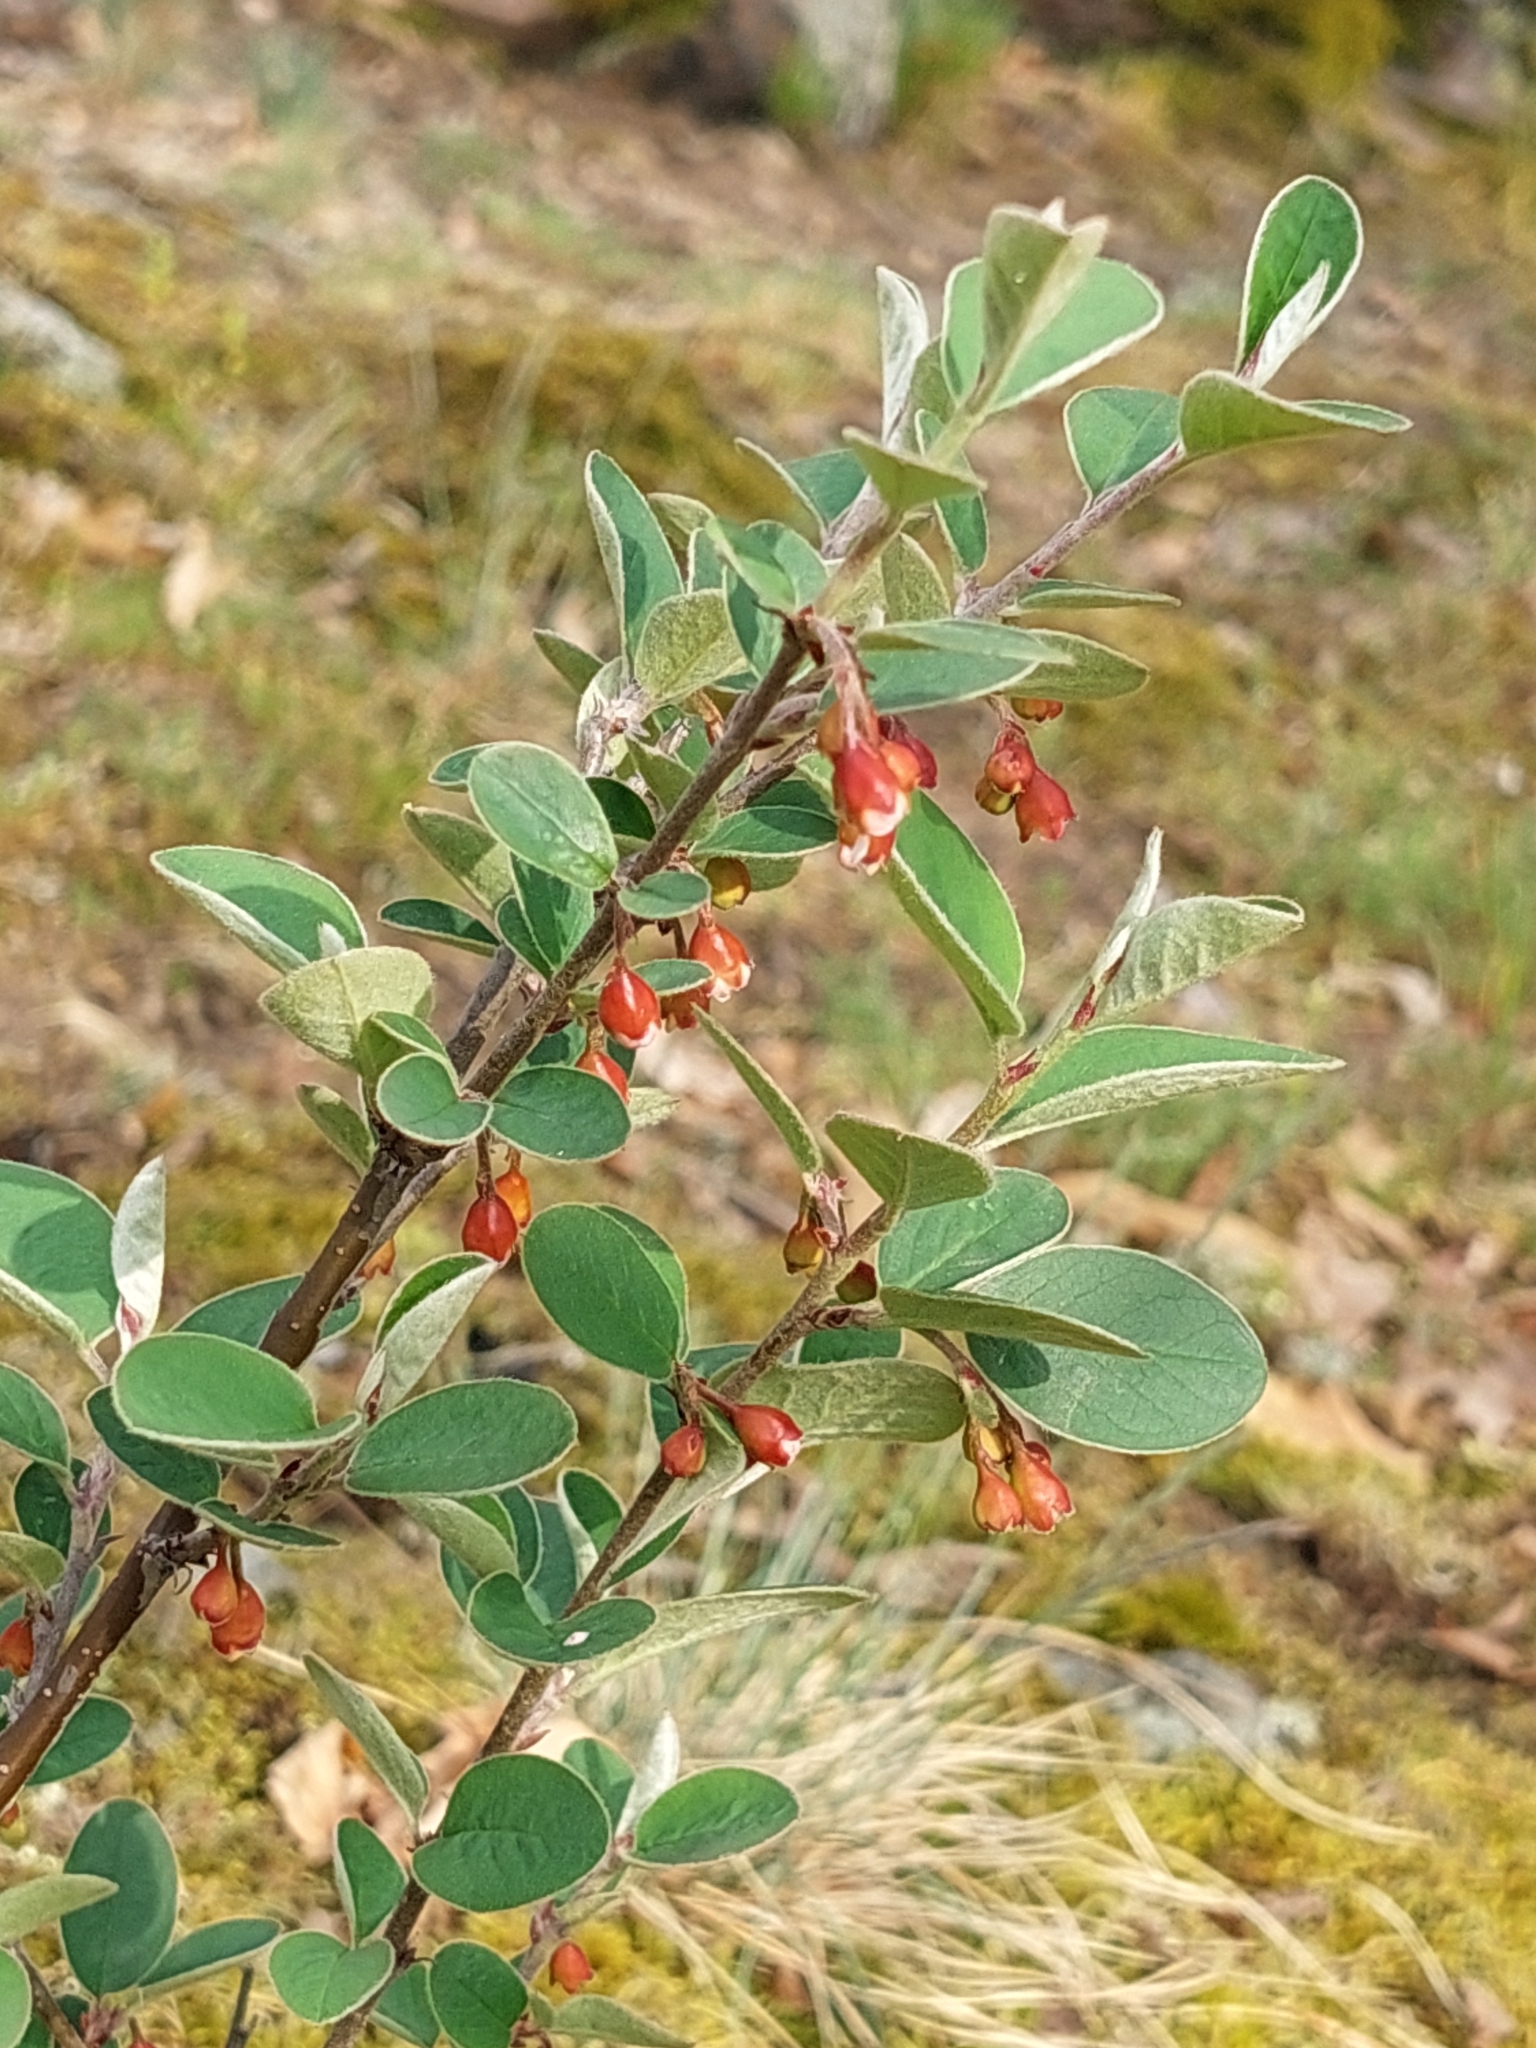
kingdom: Plantae
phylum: Tracheophyta
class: Magnoliopsida
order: Rosales
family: Rosaceae
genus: Cotoneaster
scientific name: Cotoneaster integerrimus
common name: Wild cotoneaster
